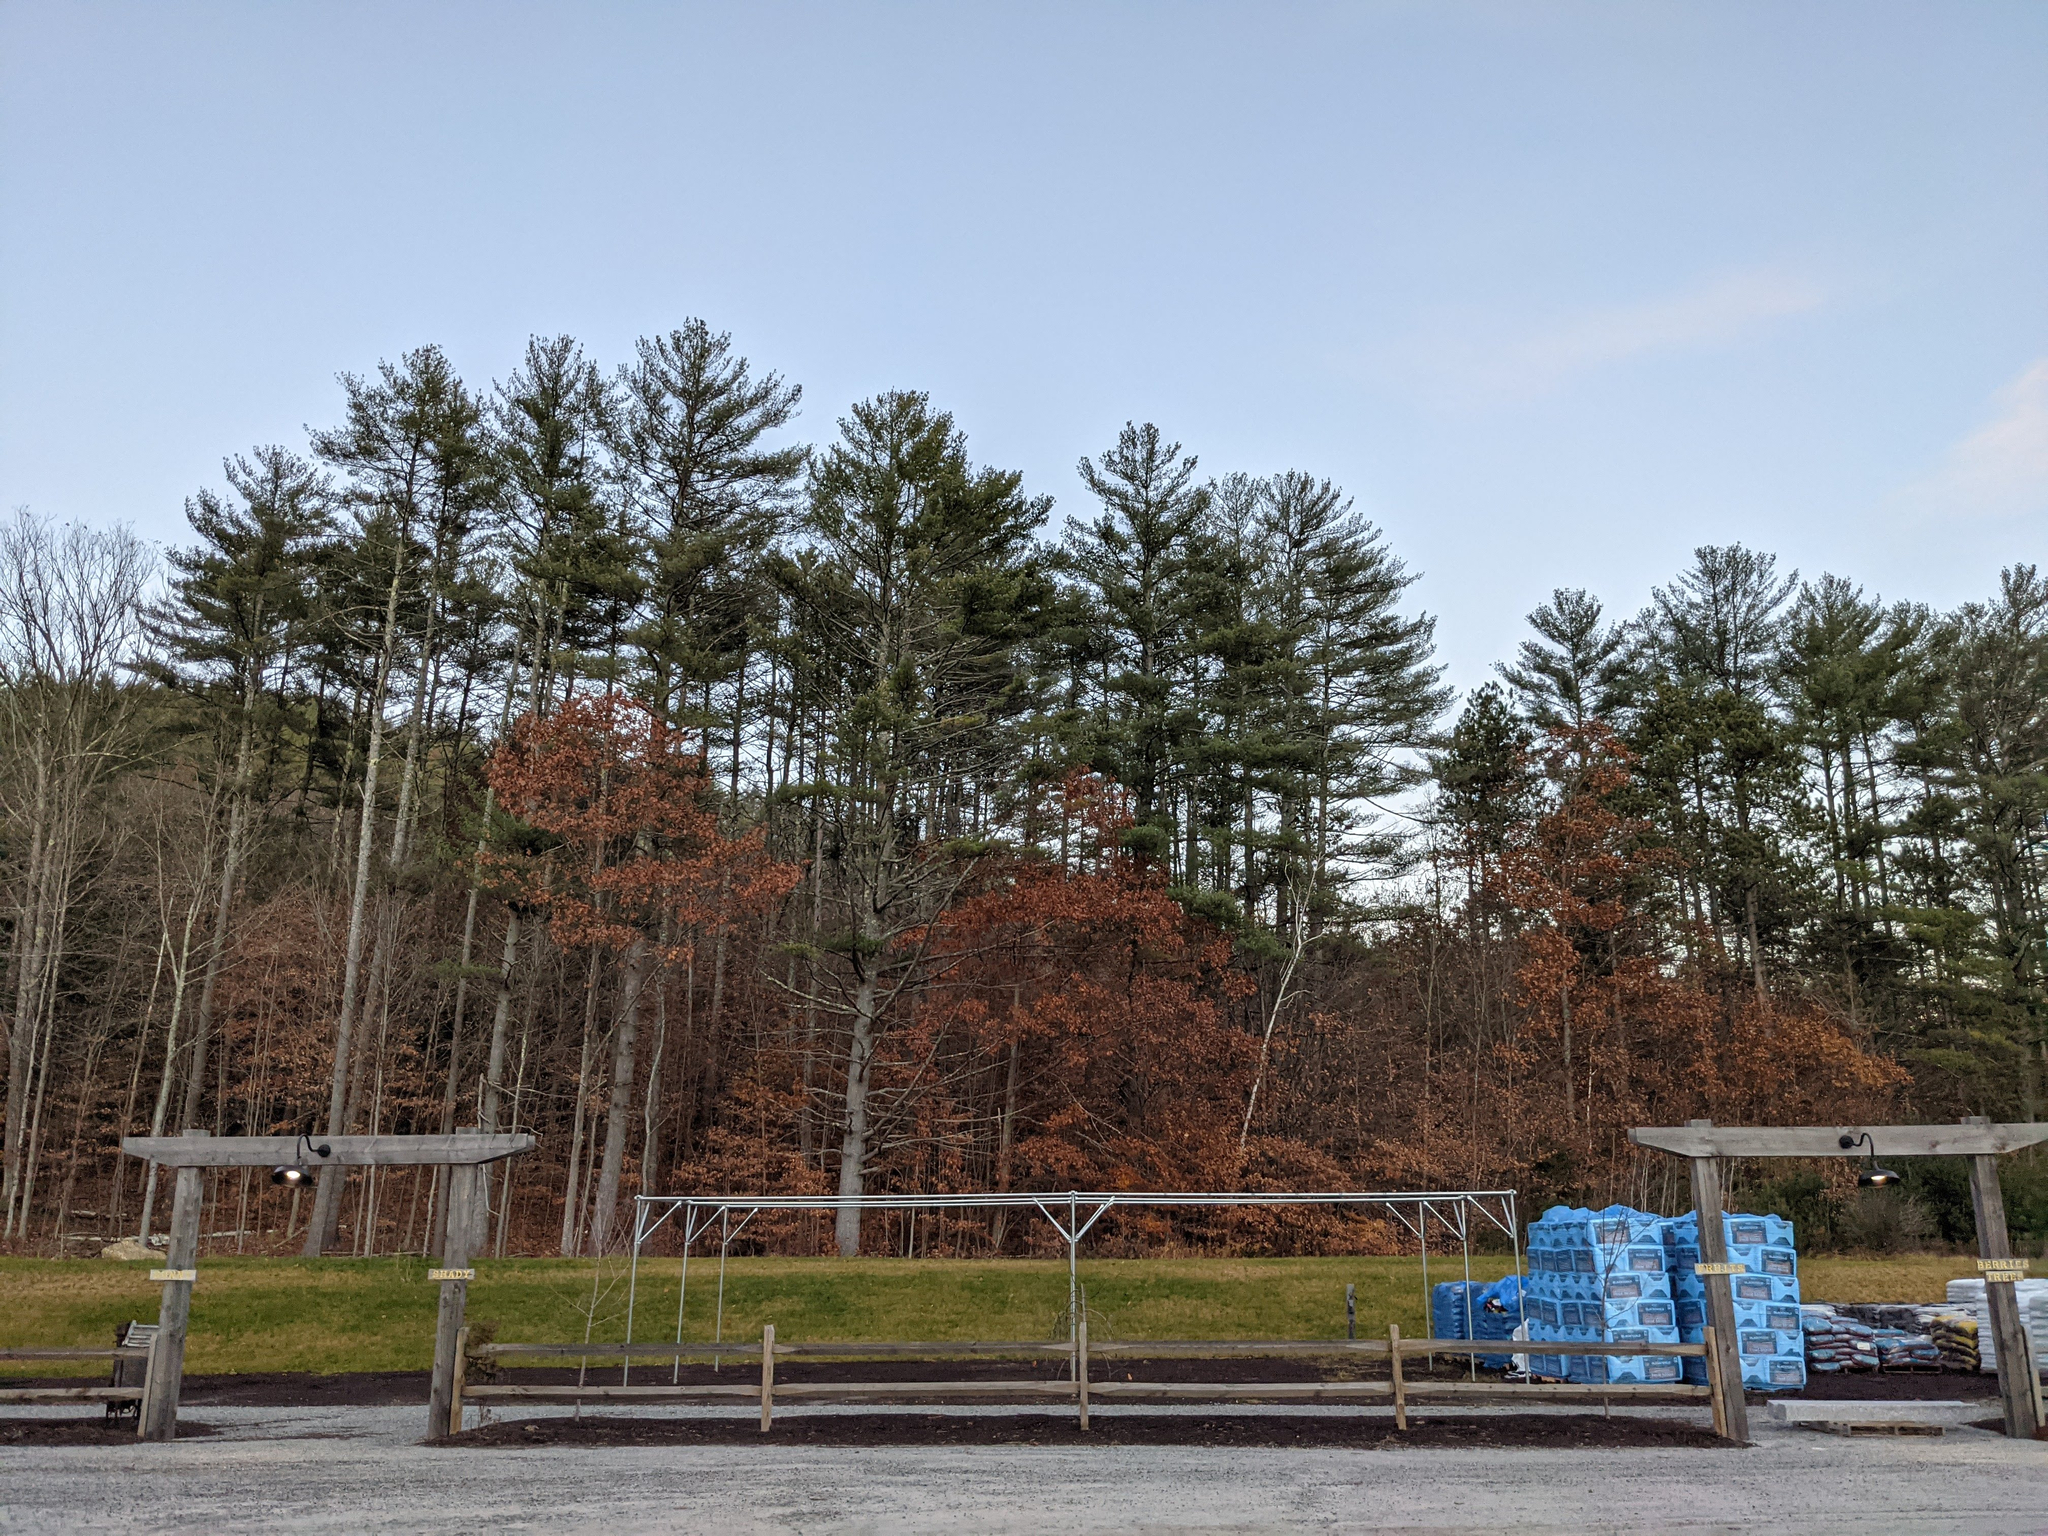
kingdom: Plantae
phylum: Tracheophyta
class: Pinopsida
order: Pinales
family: Pinaceae
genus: Pinus
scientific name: Pinus strobus
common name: Weymouth pine
